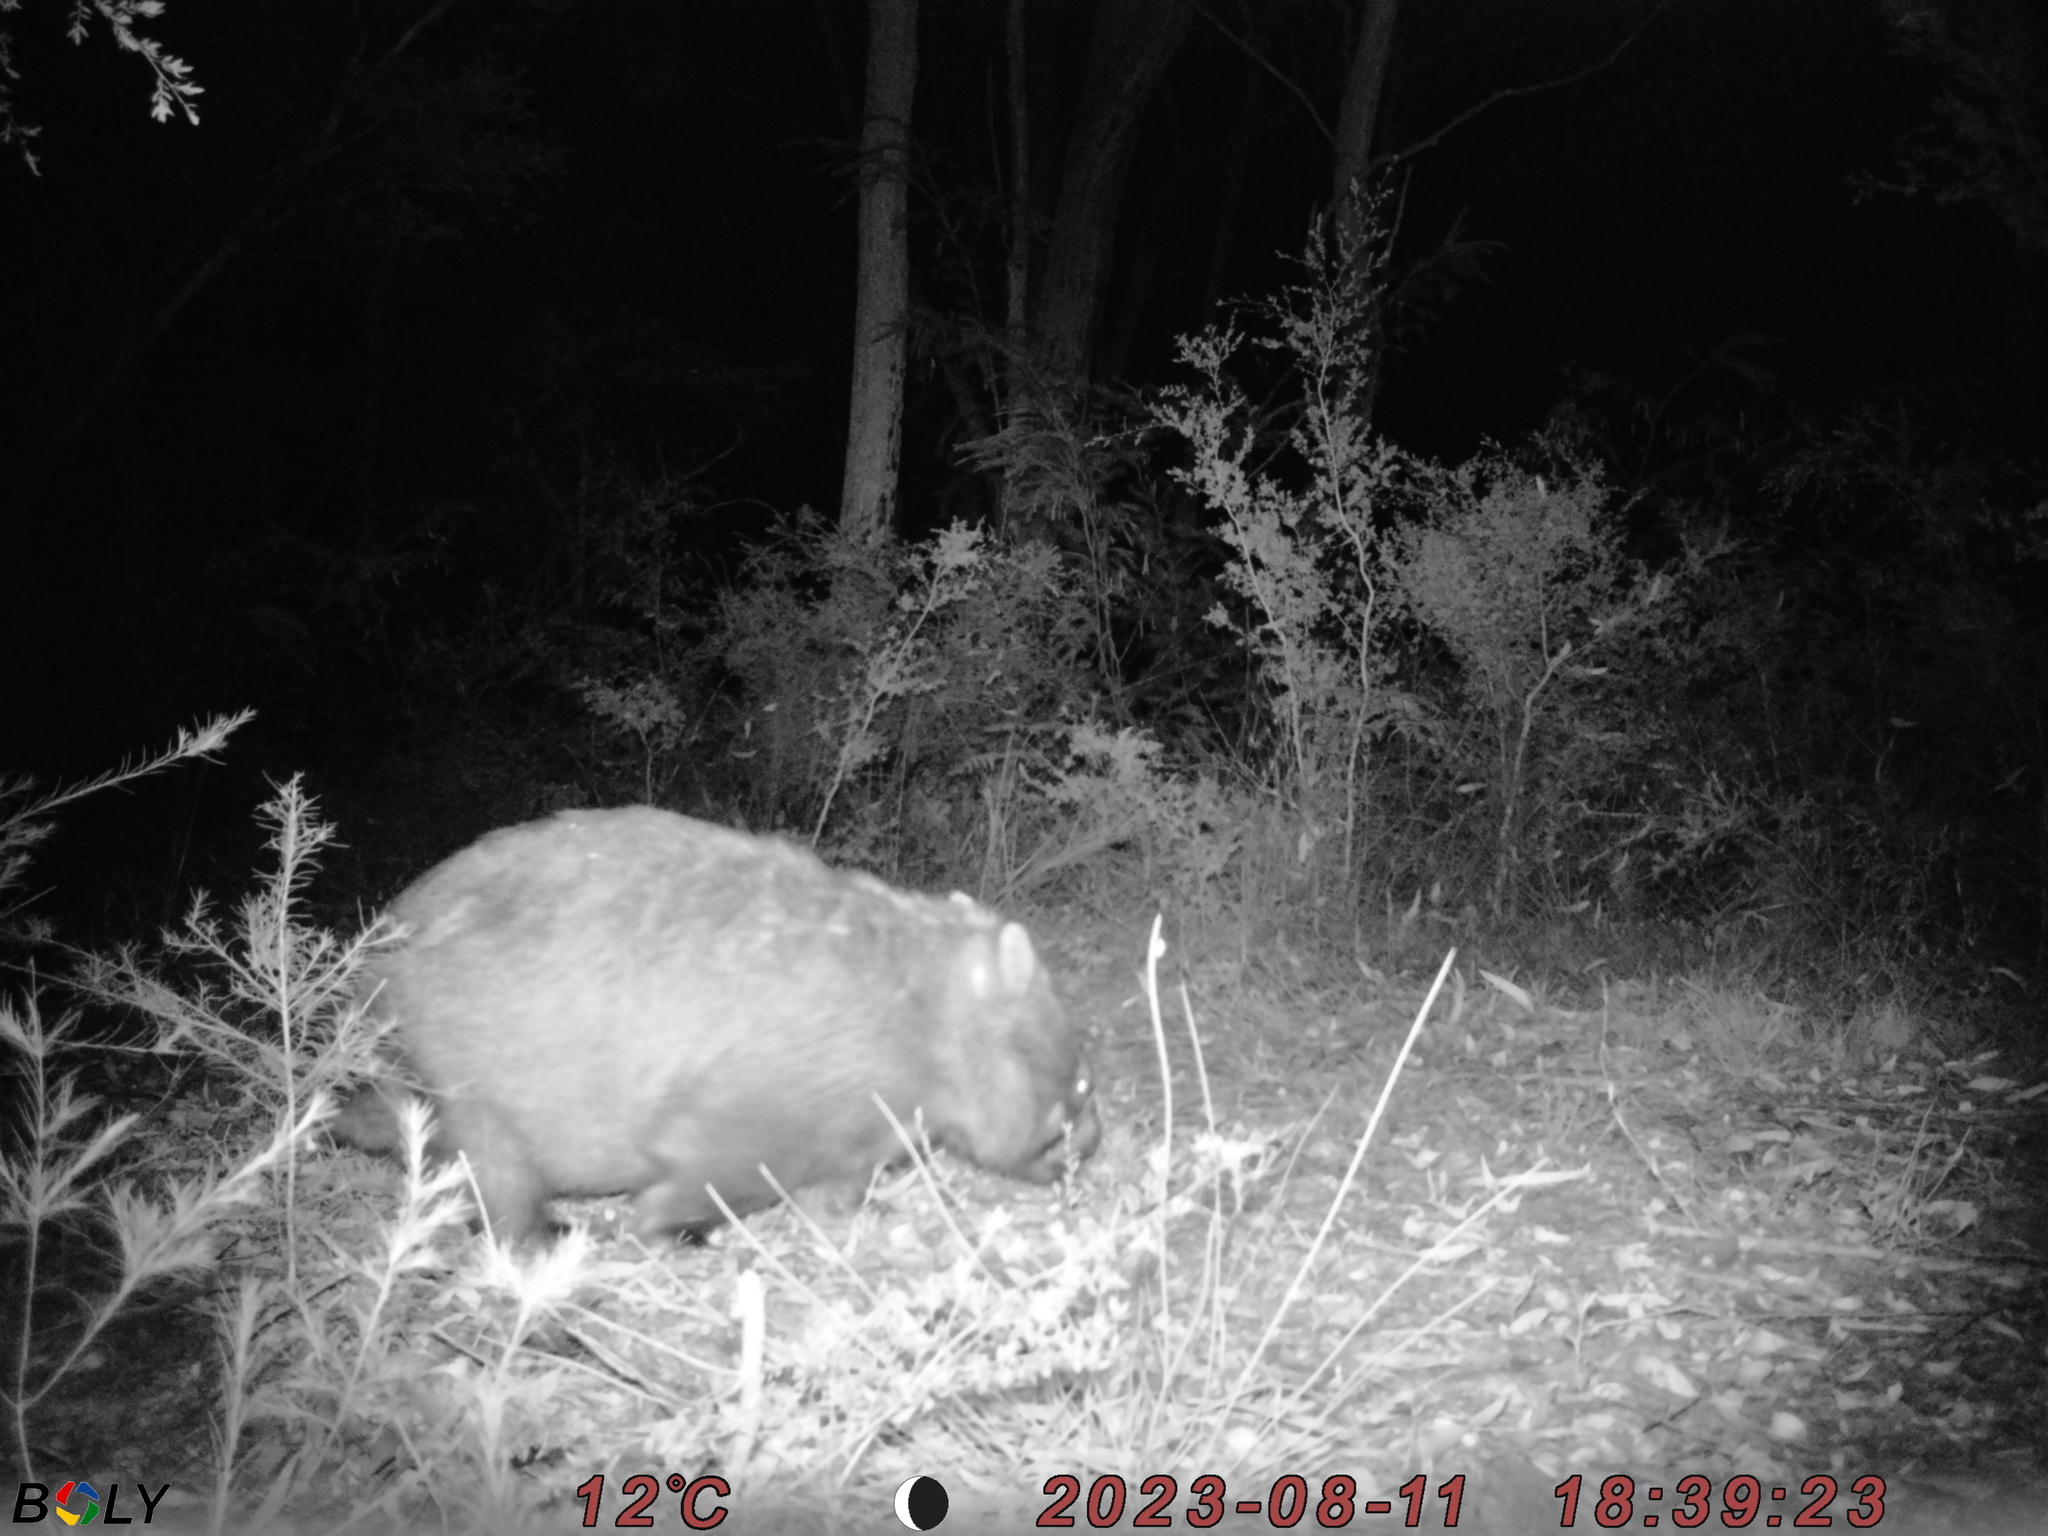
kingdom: Animalia
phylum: Chordata
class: Mammalia
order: Diprotodontia
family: Vombatidae
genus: Vombatus
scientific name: Vombatus ursinus
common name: Common wombat
